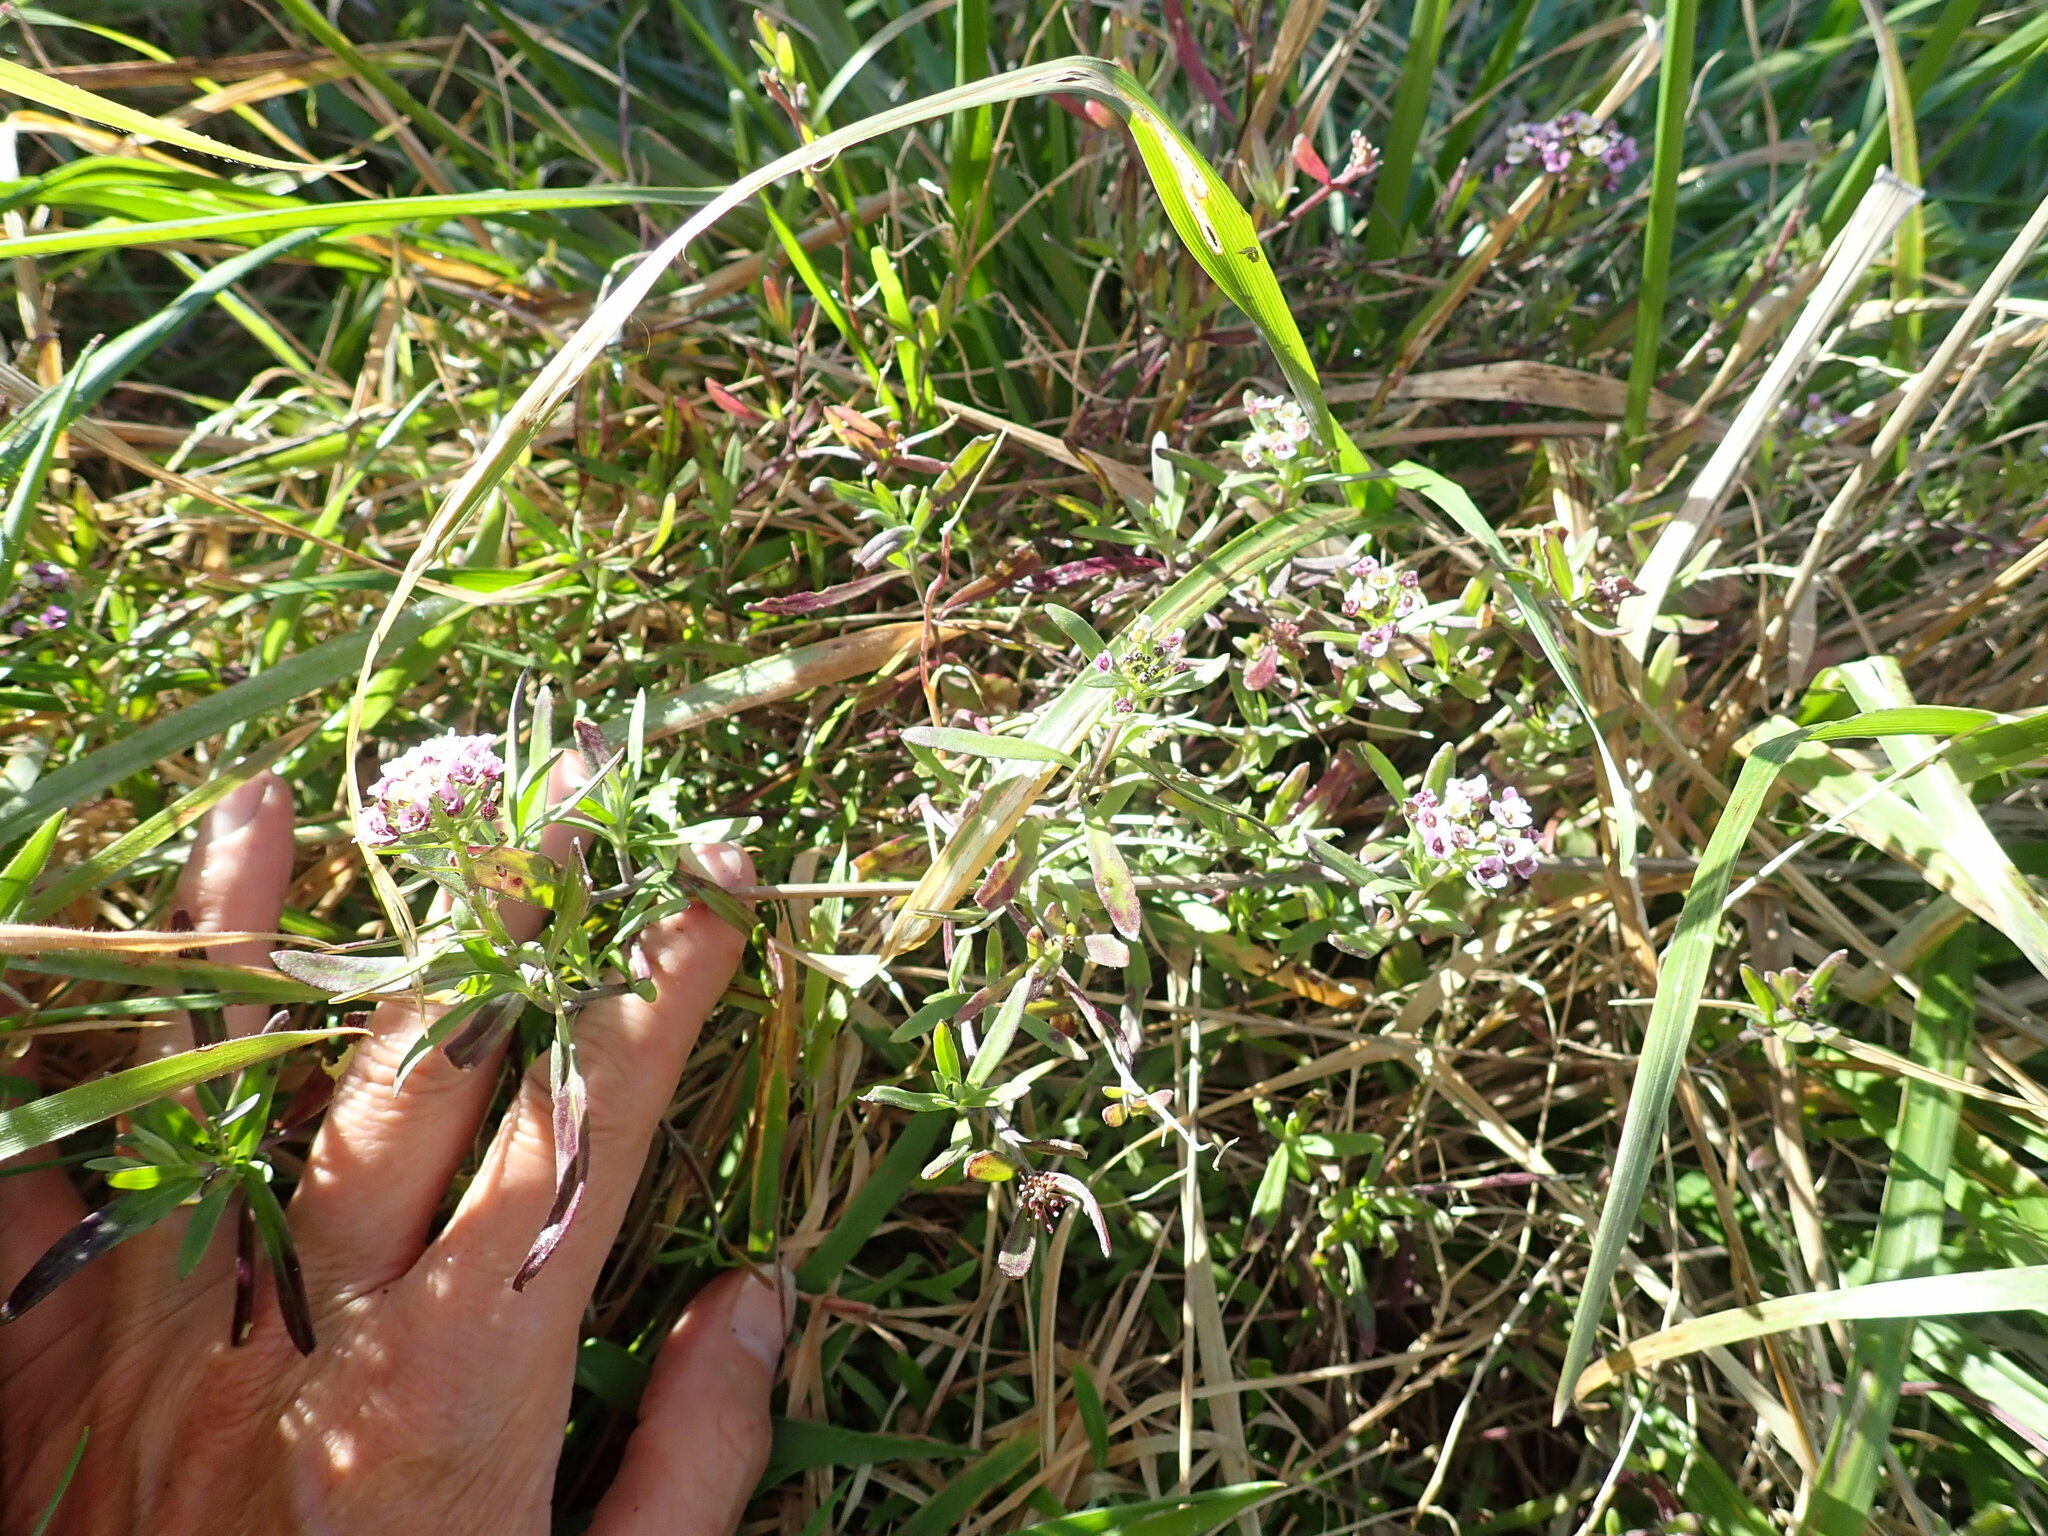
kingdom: Plantae
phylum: Tracheophyta
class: Magnoliopsida
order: Brassicales
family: Brassicaceae
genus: Lobularia
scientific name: Lobularia maritima
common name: Sweet alison
